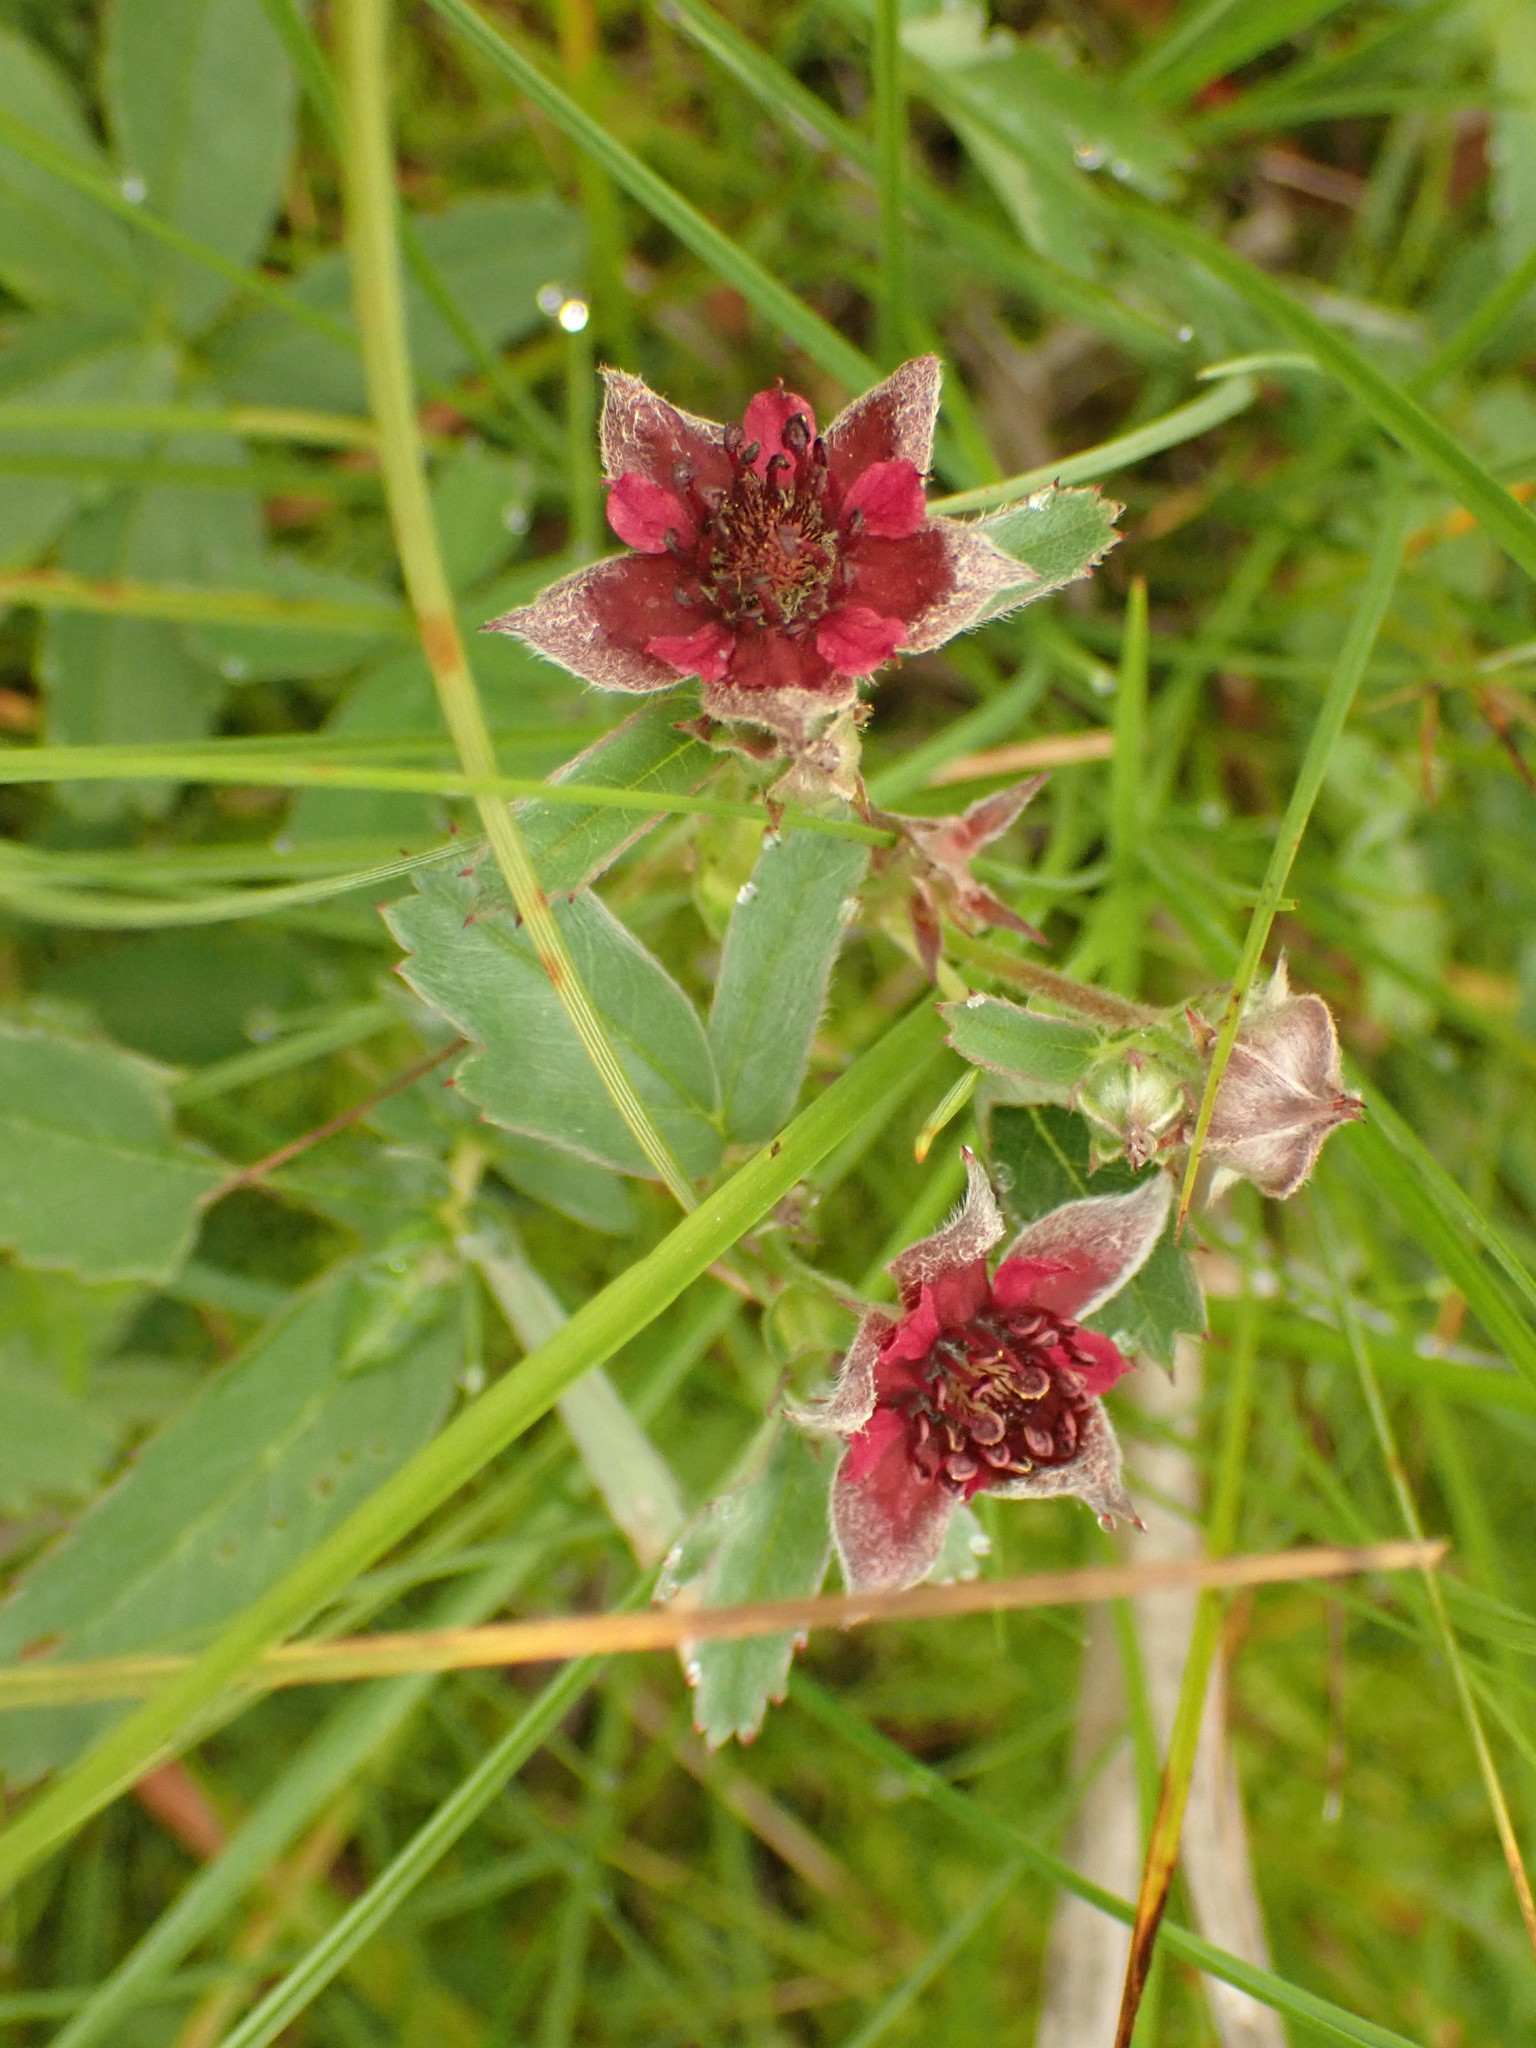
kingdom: Plantae
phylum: Tracheophyta
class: Magnoliopsida
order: Rosales
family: Rosaceae
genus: Comarum
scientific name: Comarum palustre
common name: Marsh cinquefoil
